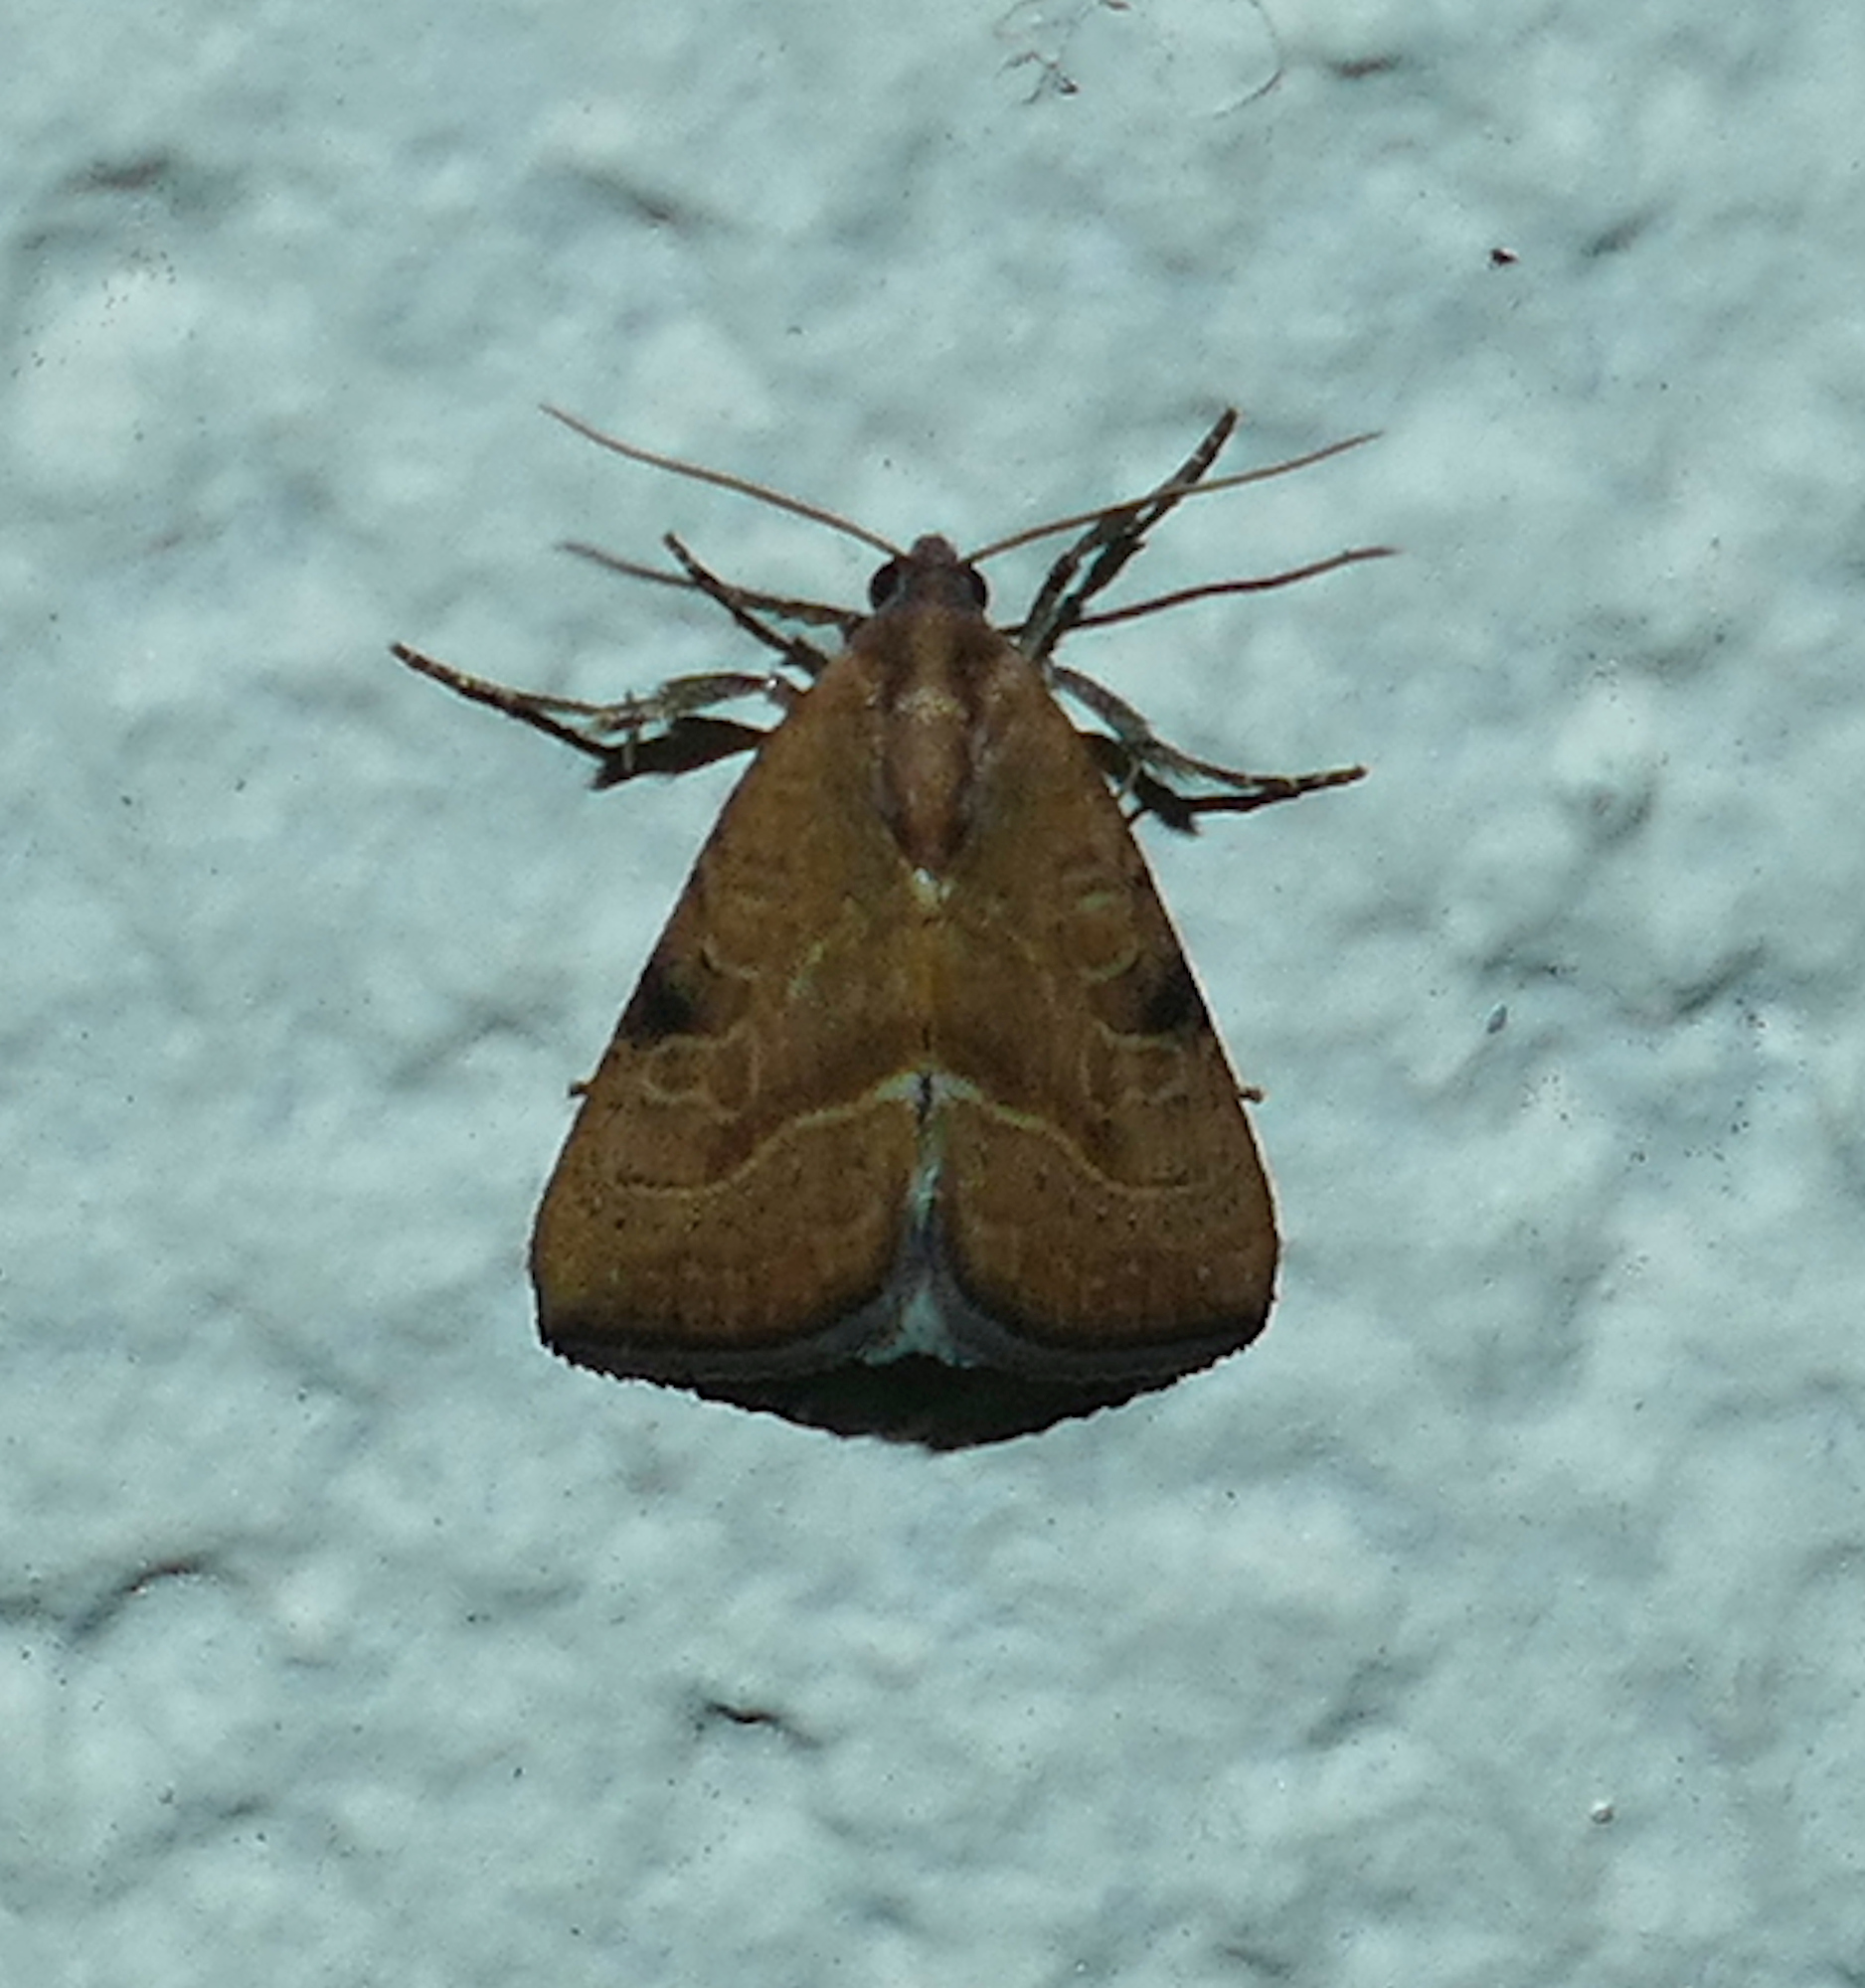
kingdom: Animalia
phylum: Arthropoda
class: Insecta
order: Lepidoptera
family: Noctuidae
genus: Galgula
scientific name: Galgula partita
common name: Wedgeling
